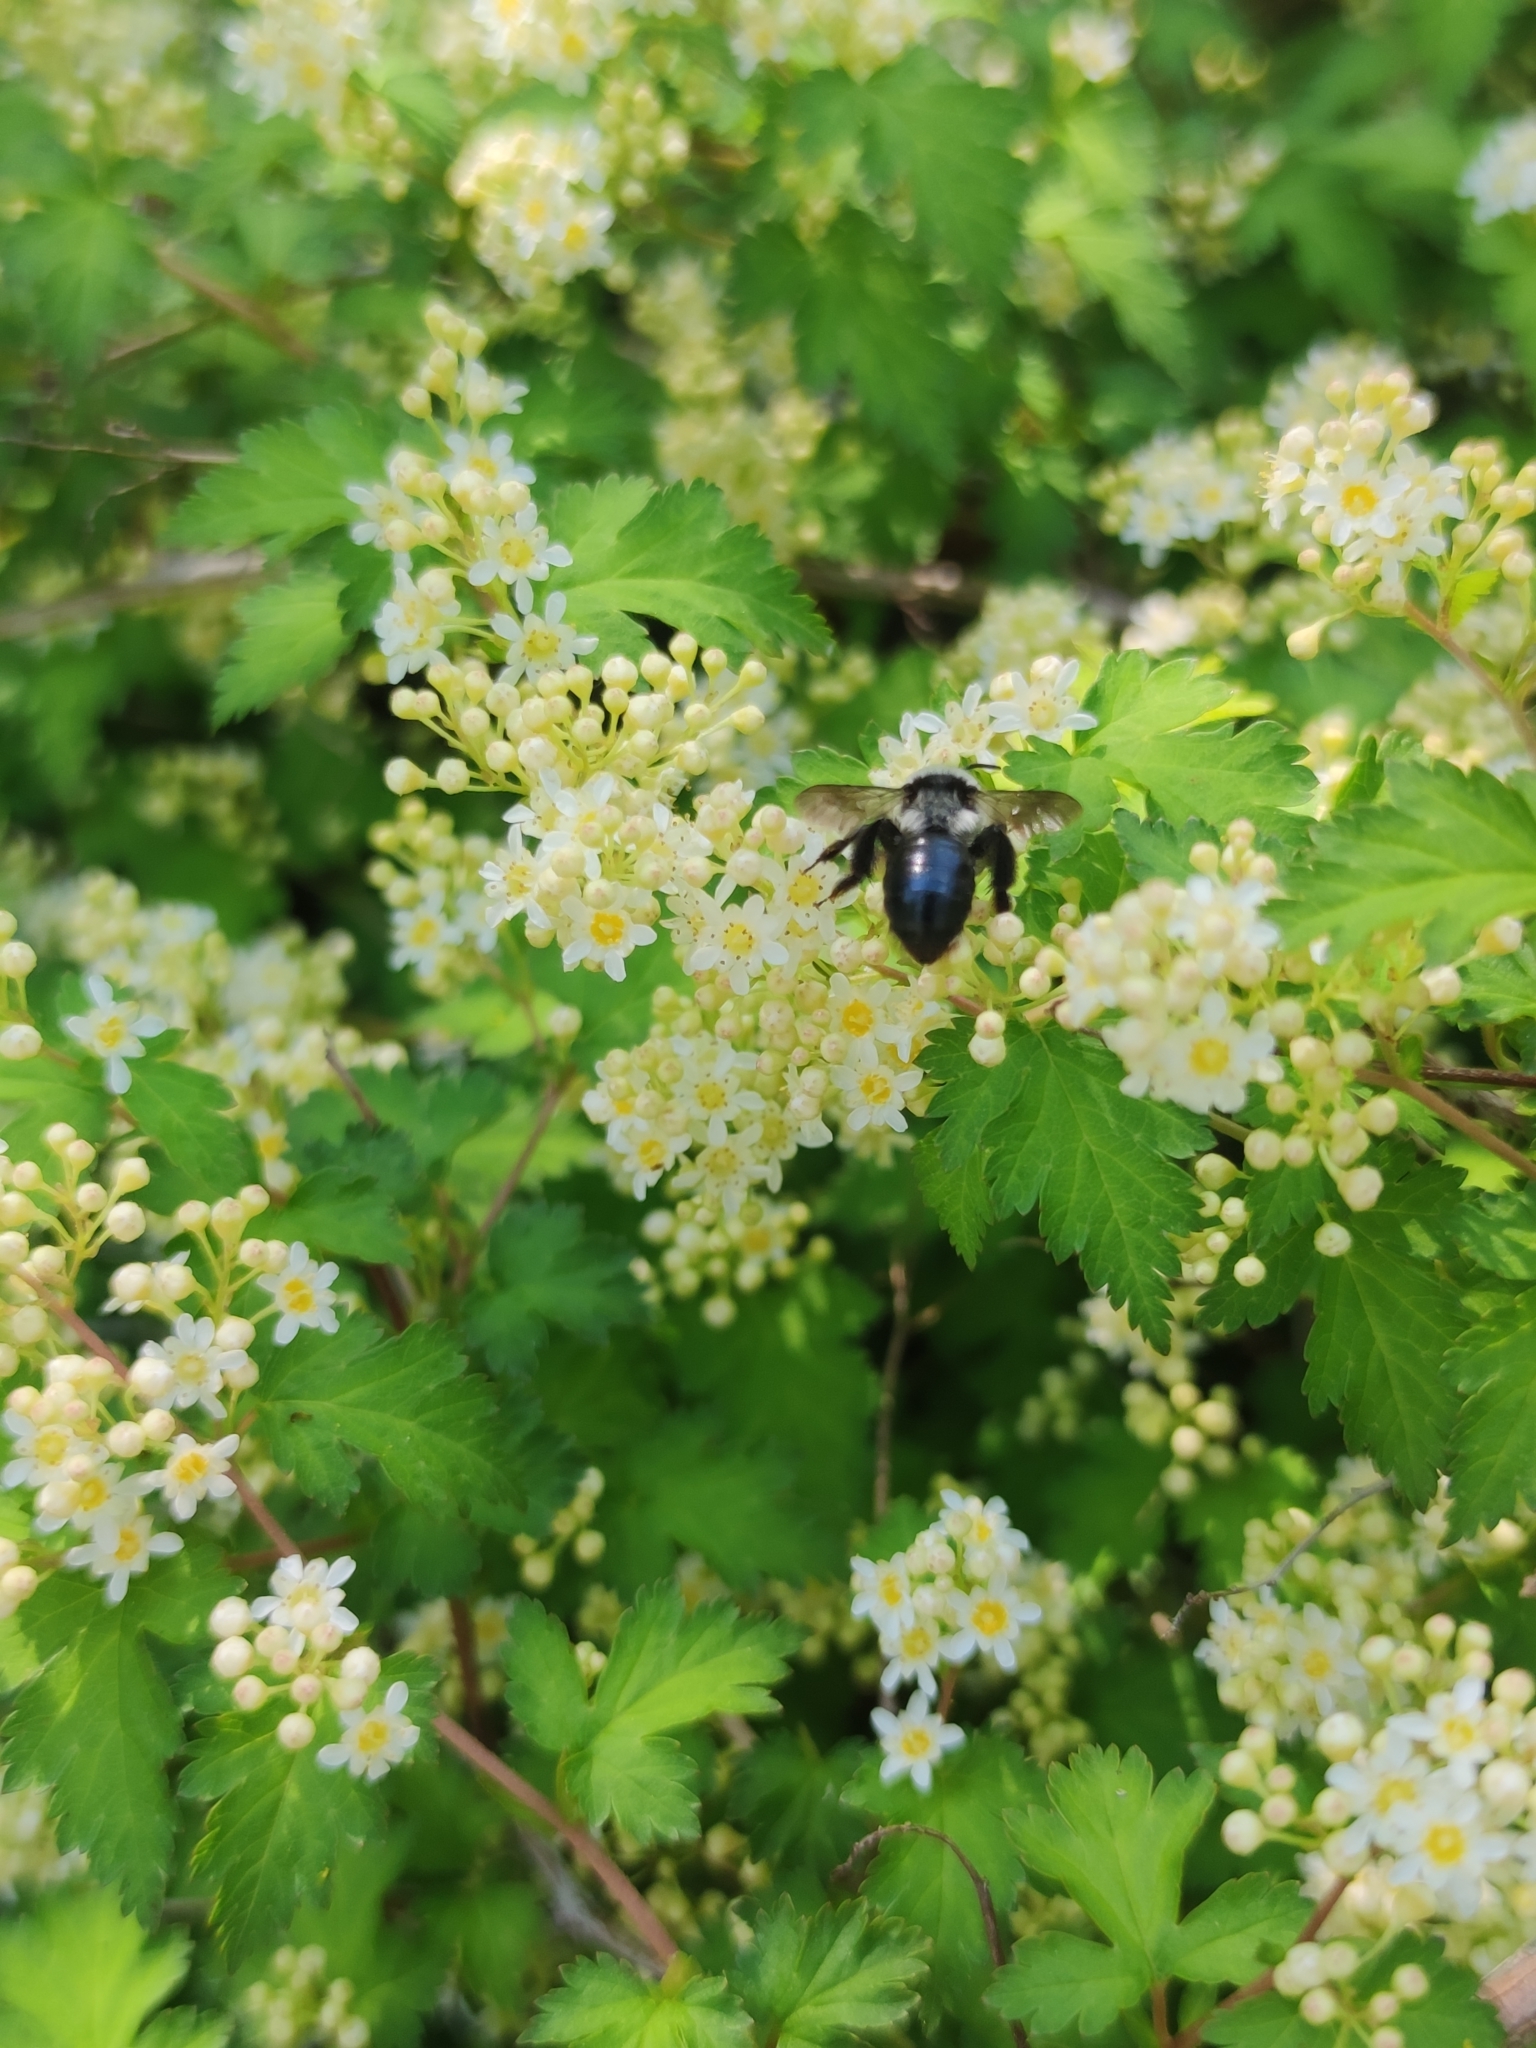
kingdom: Plantae
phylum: Tracheophyta
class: Magnoliopsida
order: Rosales
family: Rosaceae
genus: Neillia
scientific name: Neillia incisa
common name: Laceshrub
